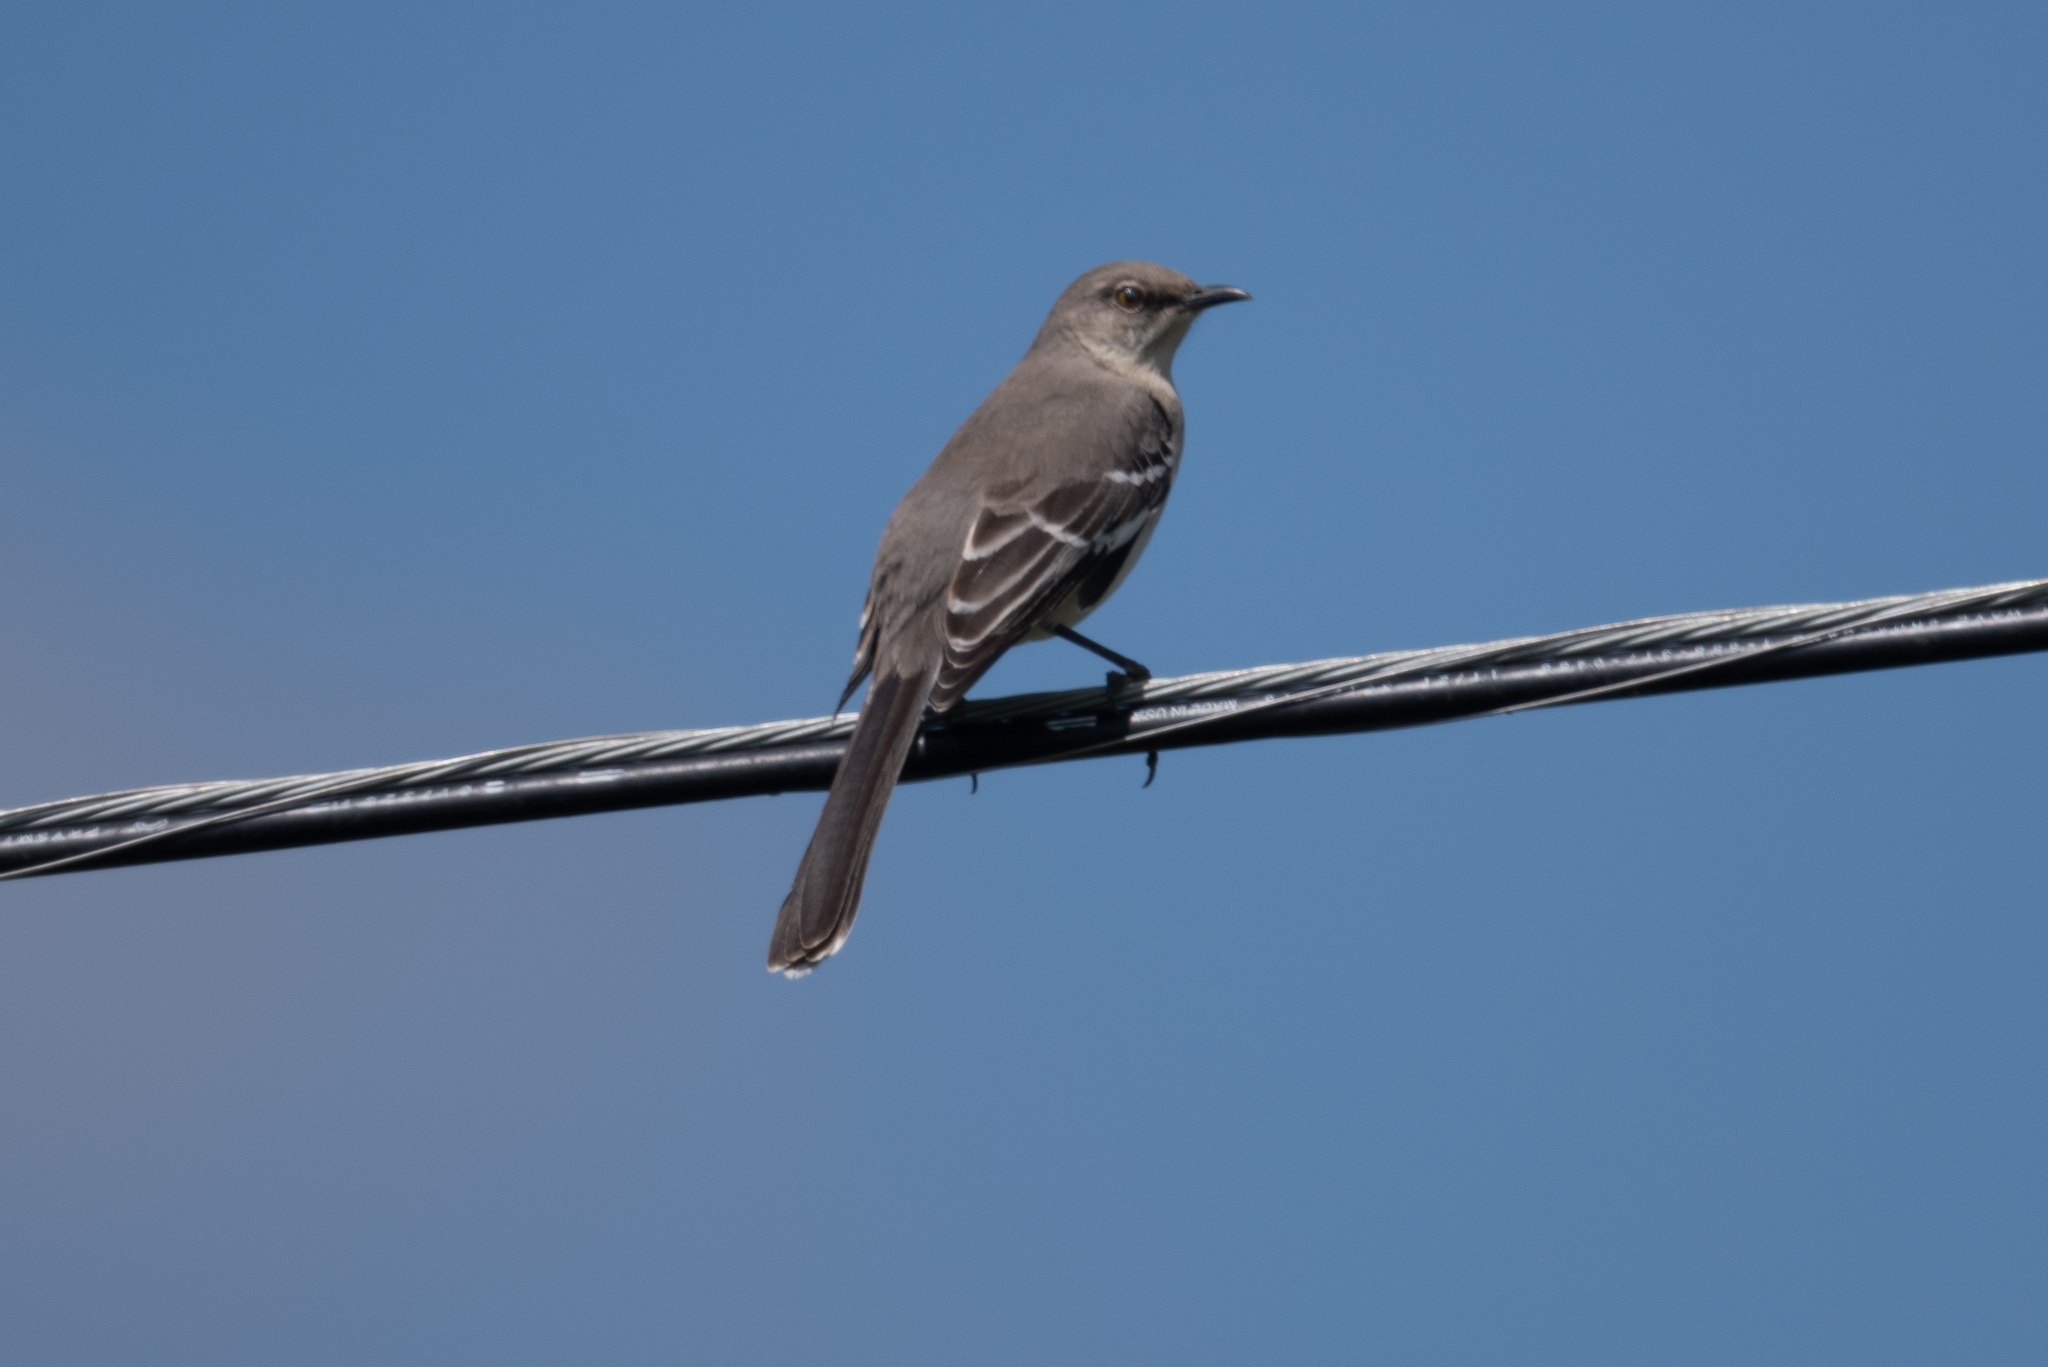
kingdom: Animalia
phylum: Chordata
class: Aves
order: Passeriformes
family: Mimidae
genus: Mimus
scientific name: Mimus polyglottos
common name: Northern mockingbird
